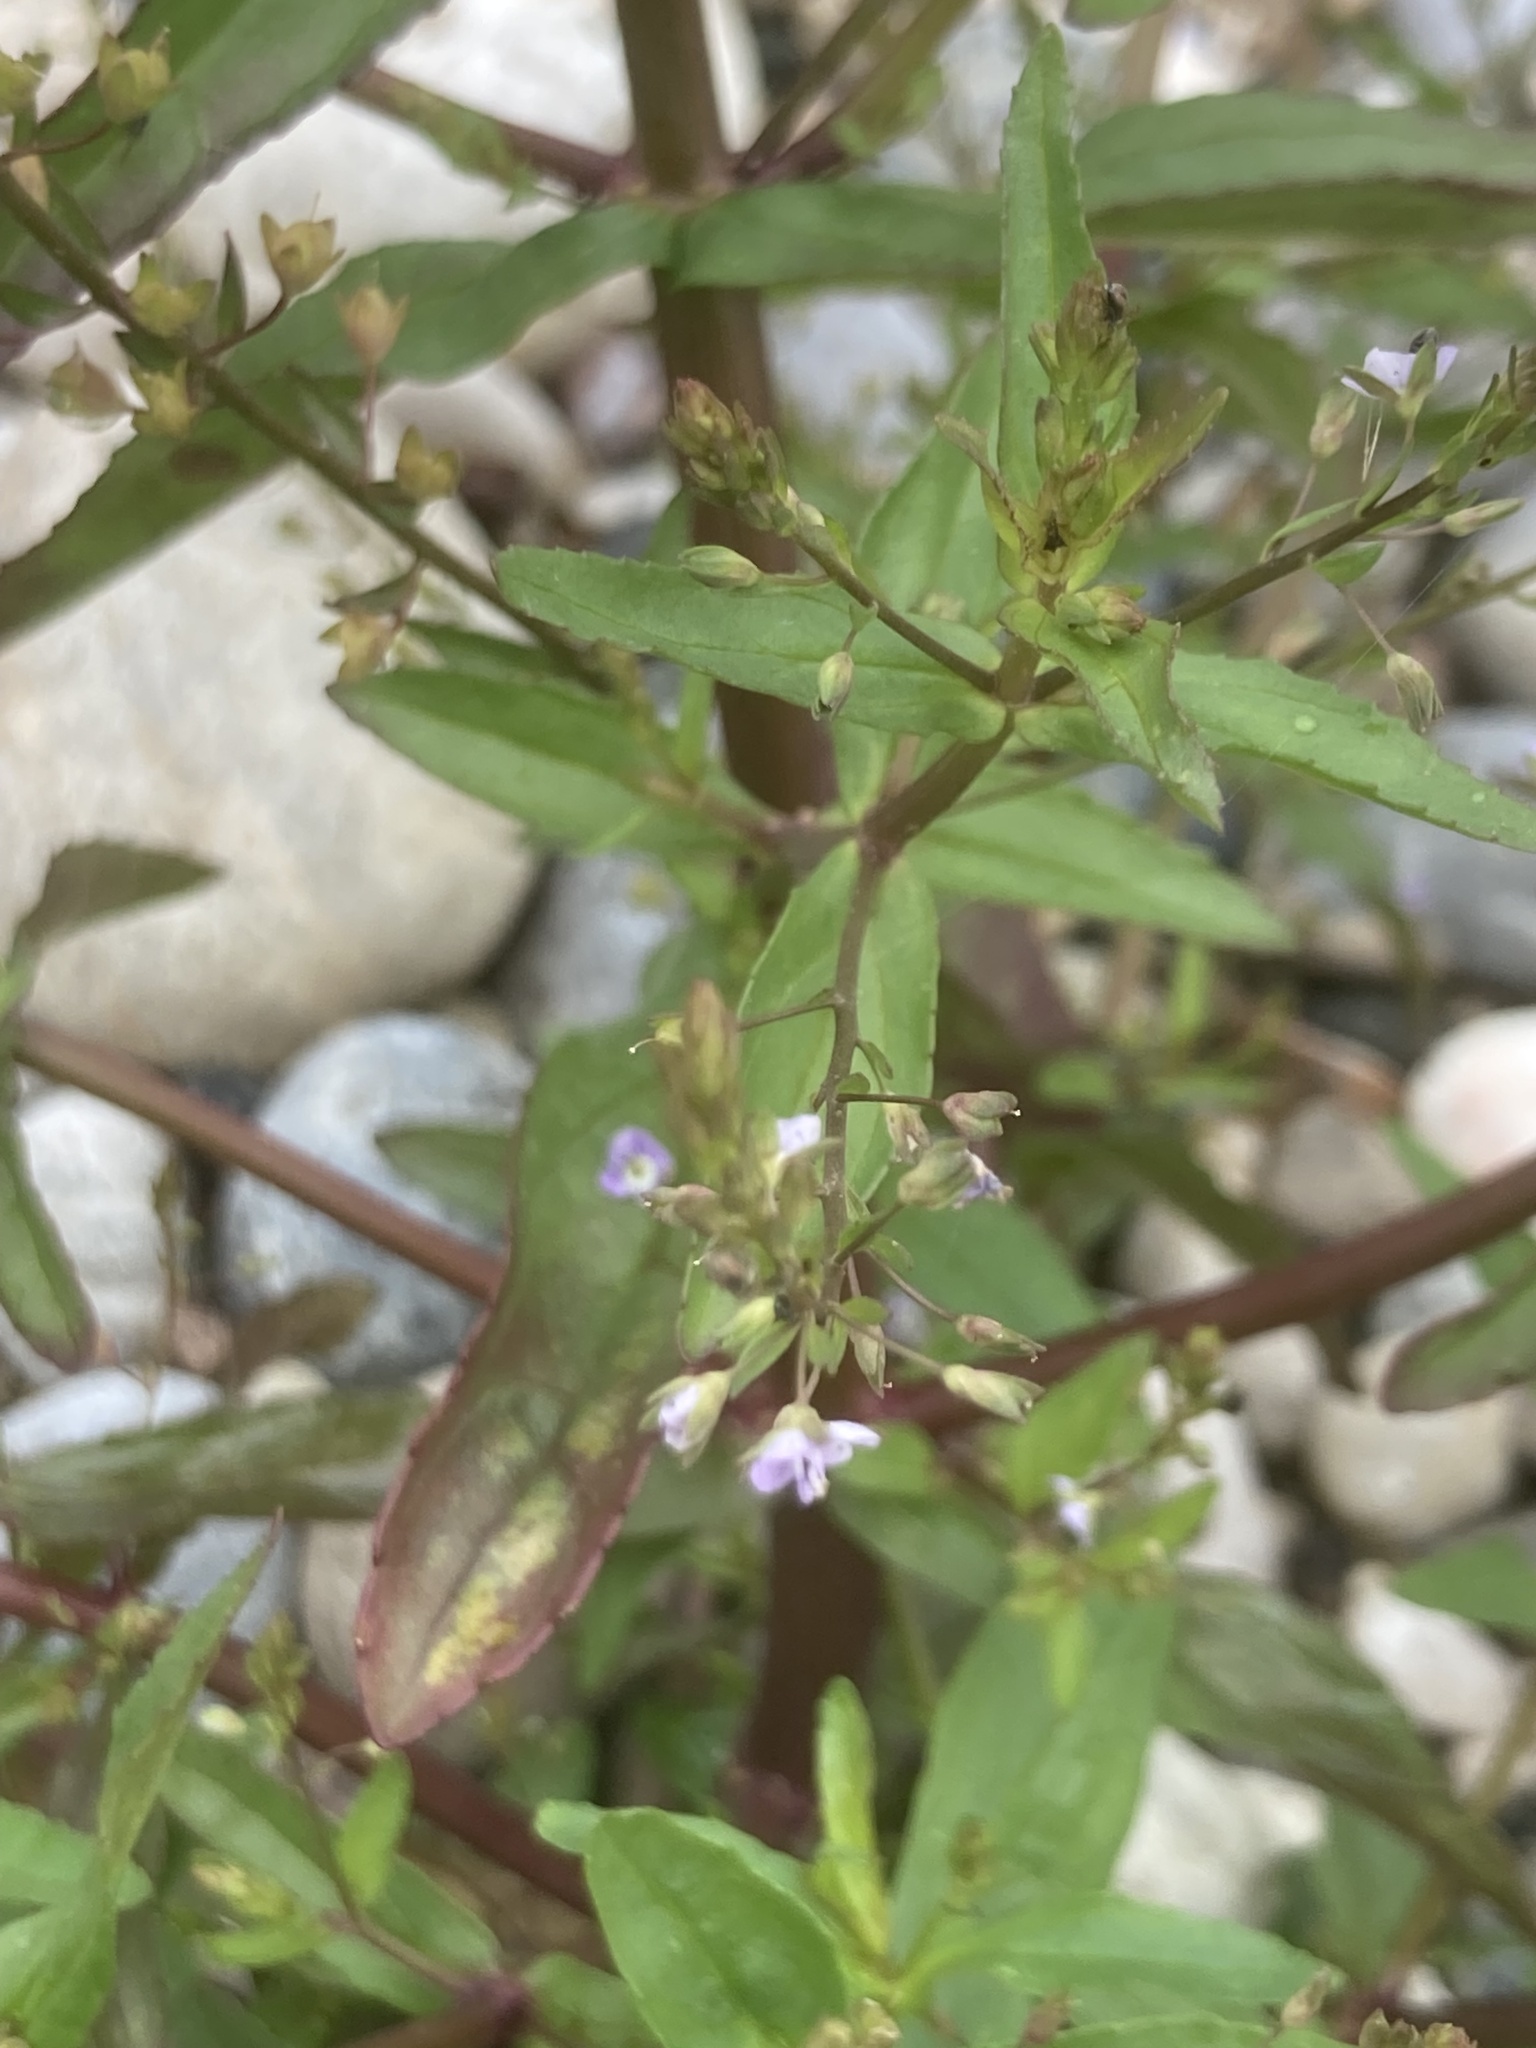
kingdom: Plantae
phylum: Tracheophyta
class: Magnoliopsida
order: Lamiales
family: Plantaginaceae
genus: Veronica
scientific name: Veronica anagallis-aquatica
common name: Water speedwell
